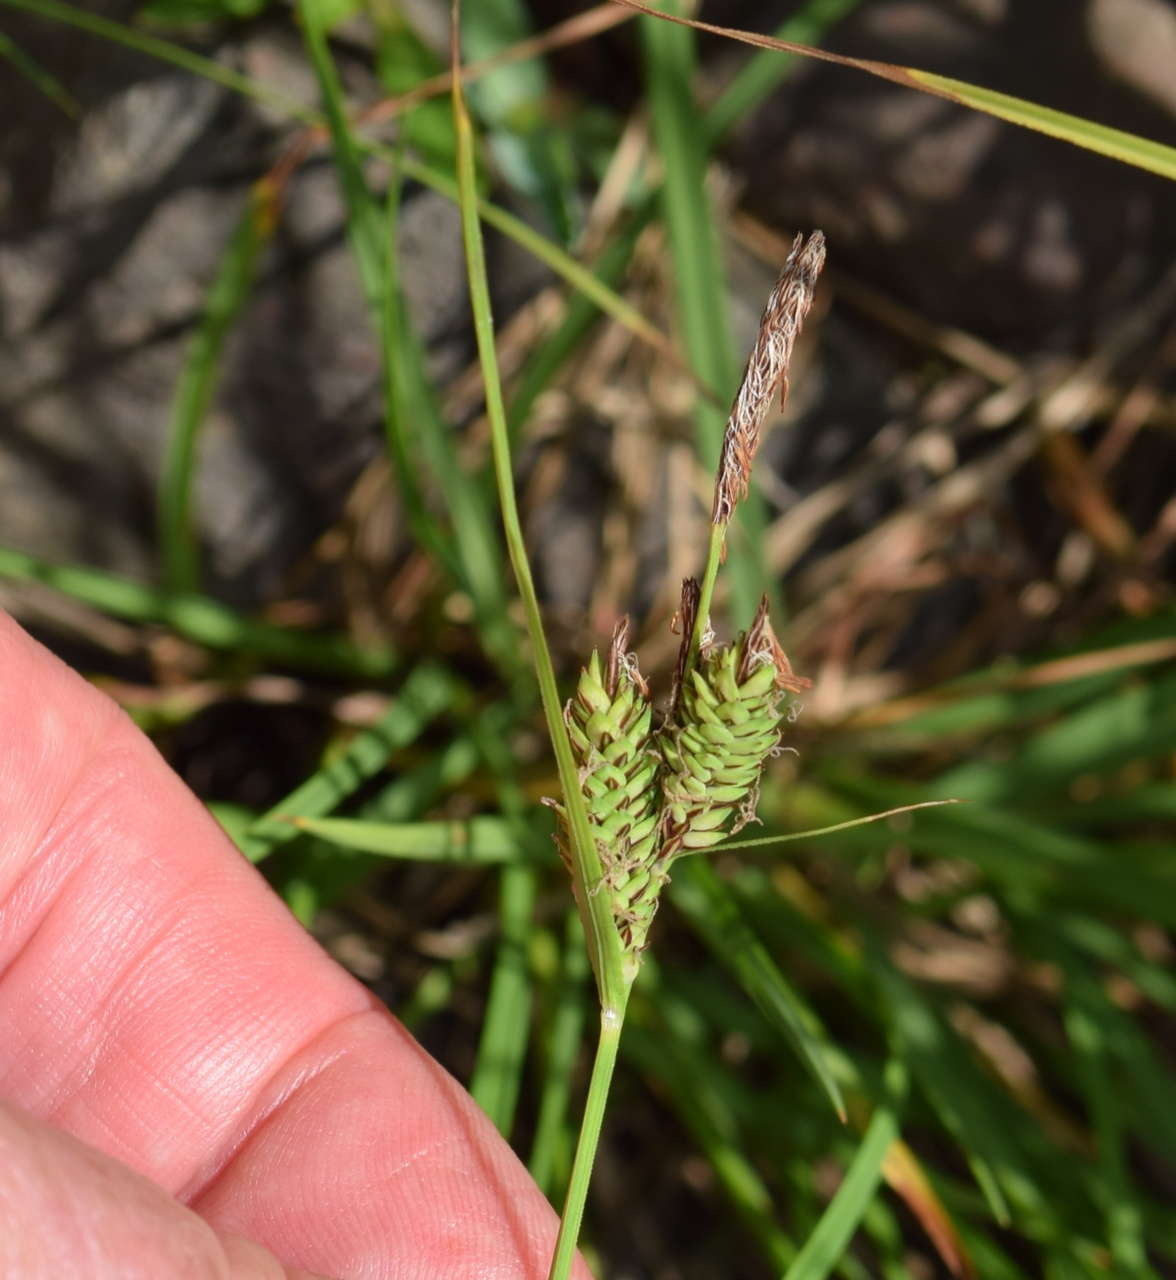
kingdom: Plantae
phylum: Tracheophyta
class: Liliopsida
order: Poales
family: Cyperaceae
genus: Carex
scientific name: Carex gaudichaudiana
